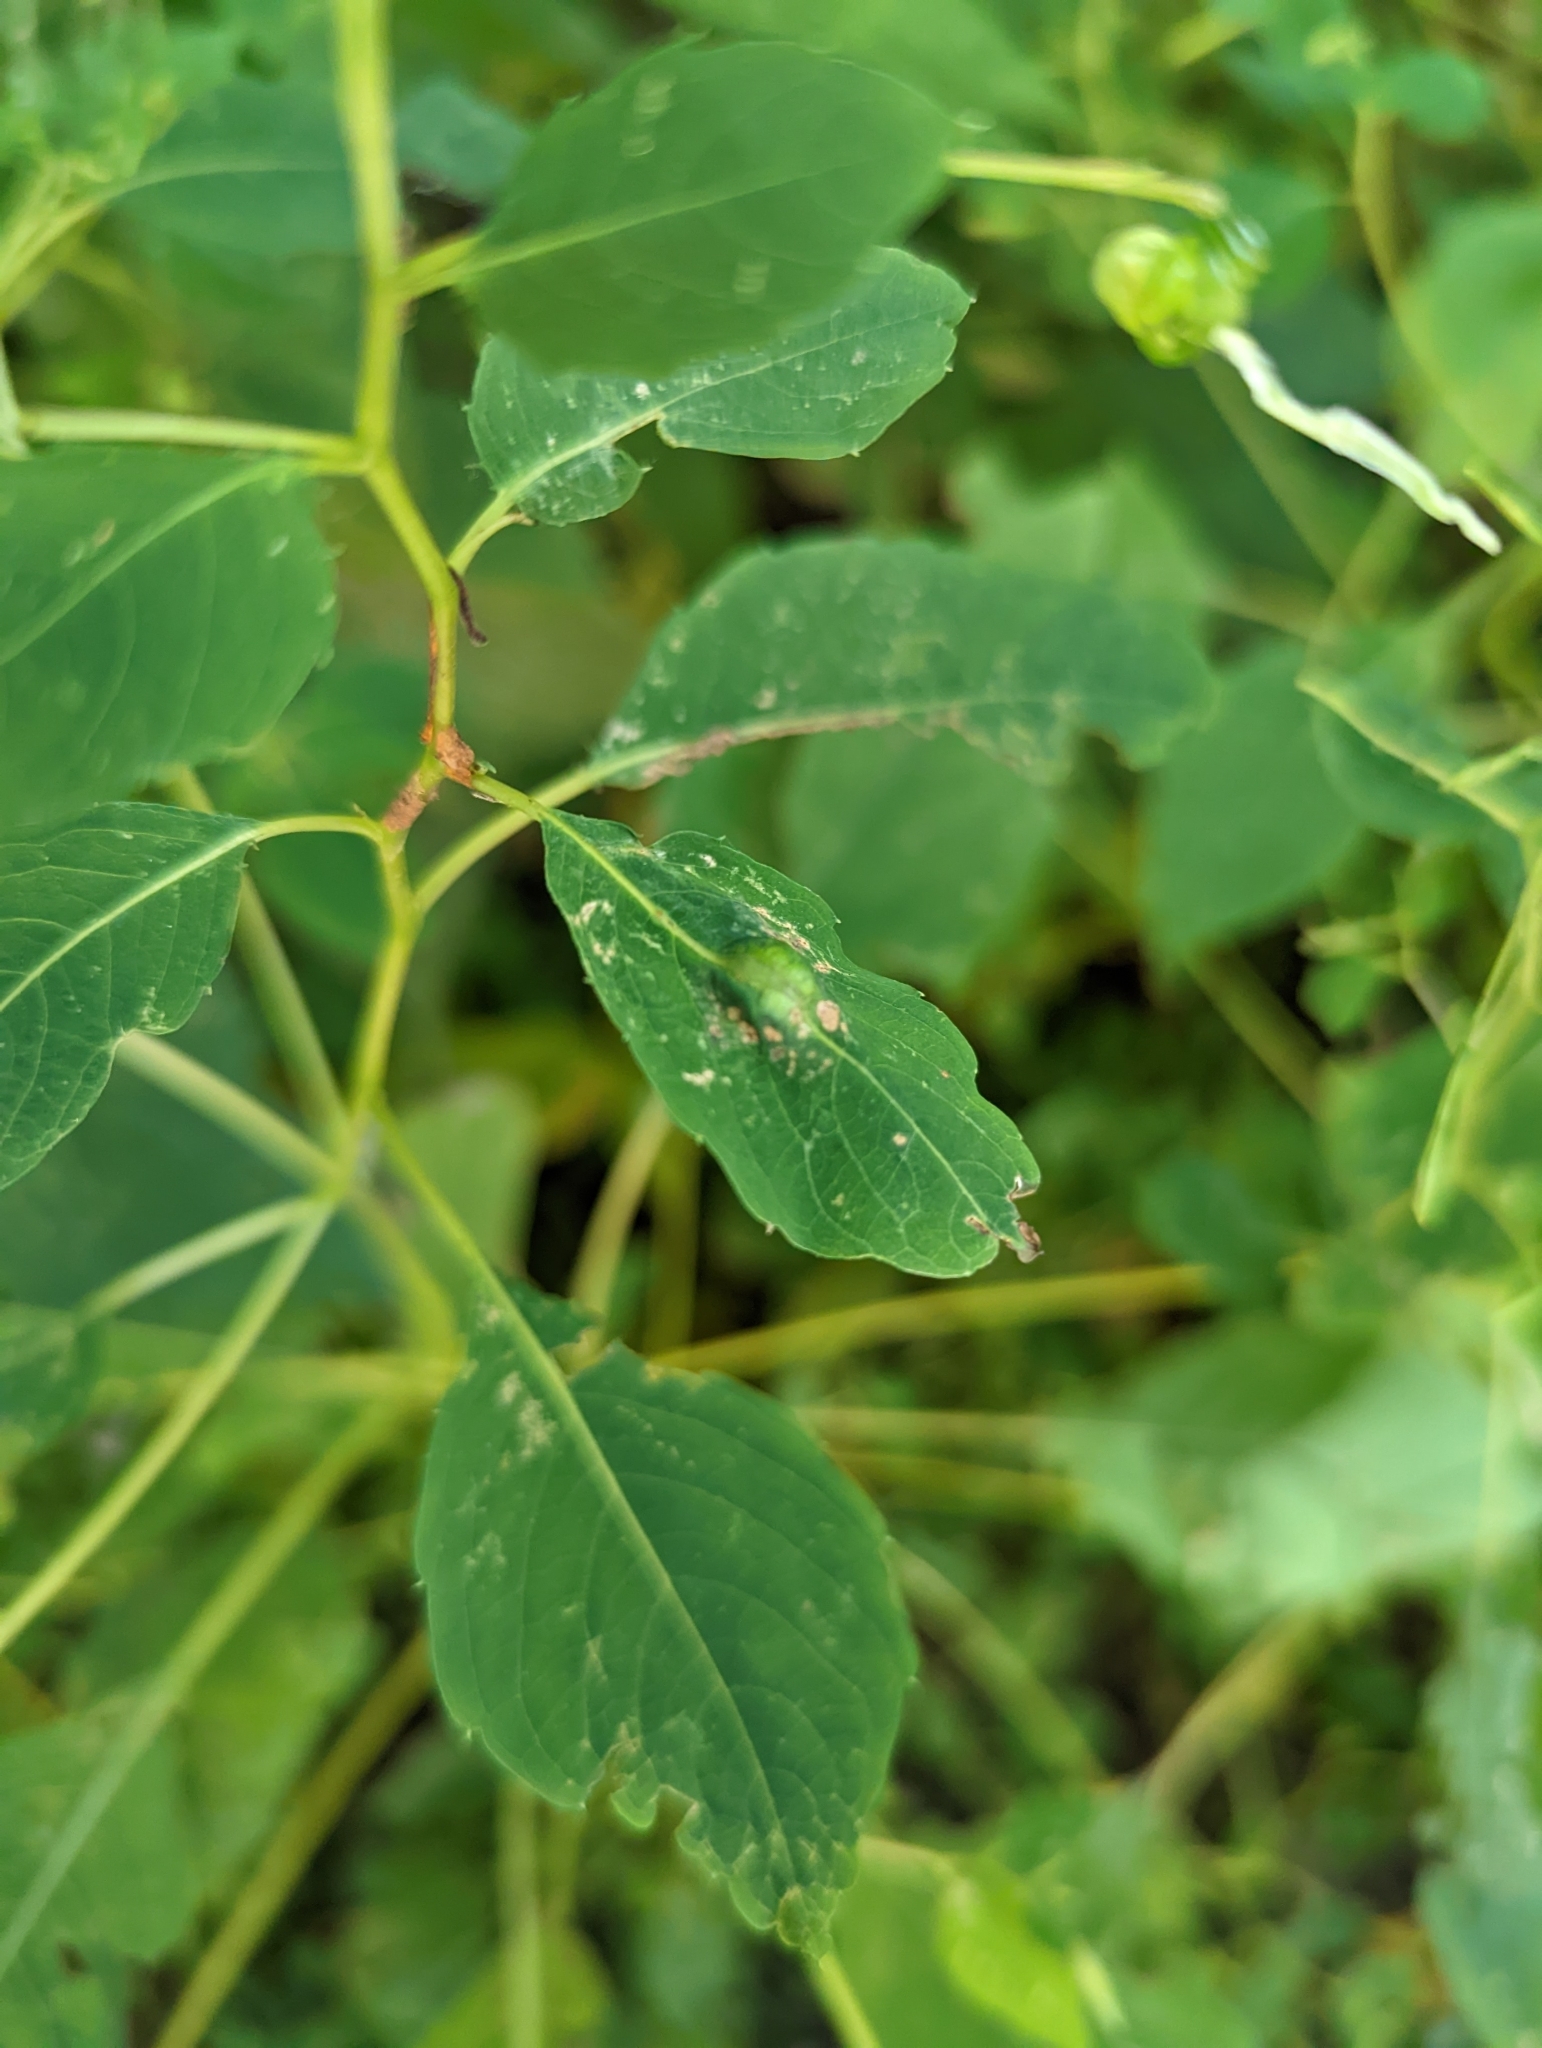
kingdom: Animalia
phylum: Arthropoda
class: Insecta
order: Diptera
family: Cecidomyiidae
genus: Neolasioptera
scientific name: Neolasioptera impatientifolia
